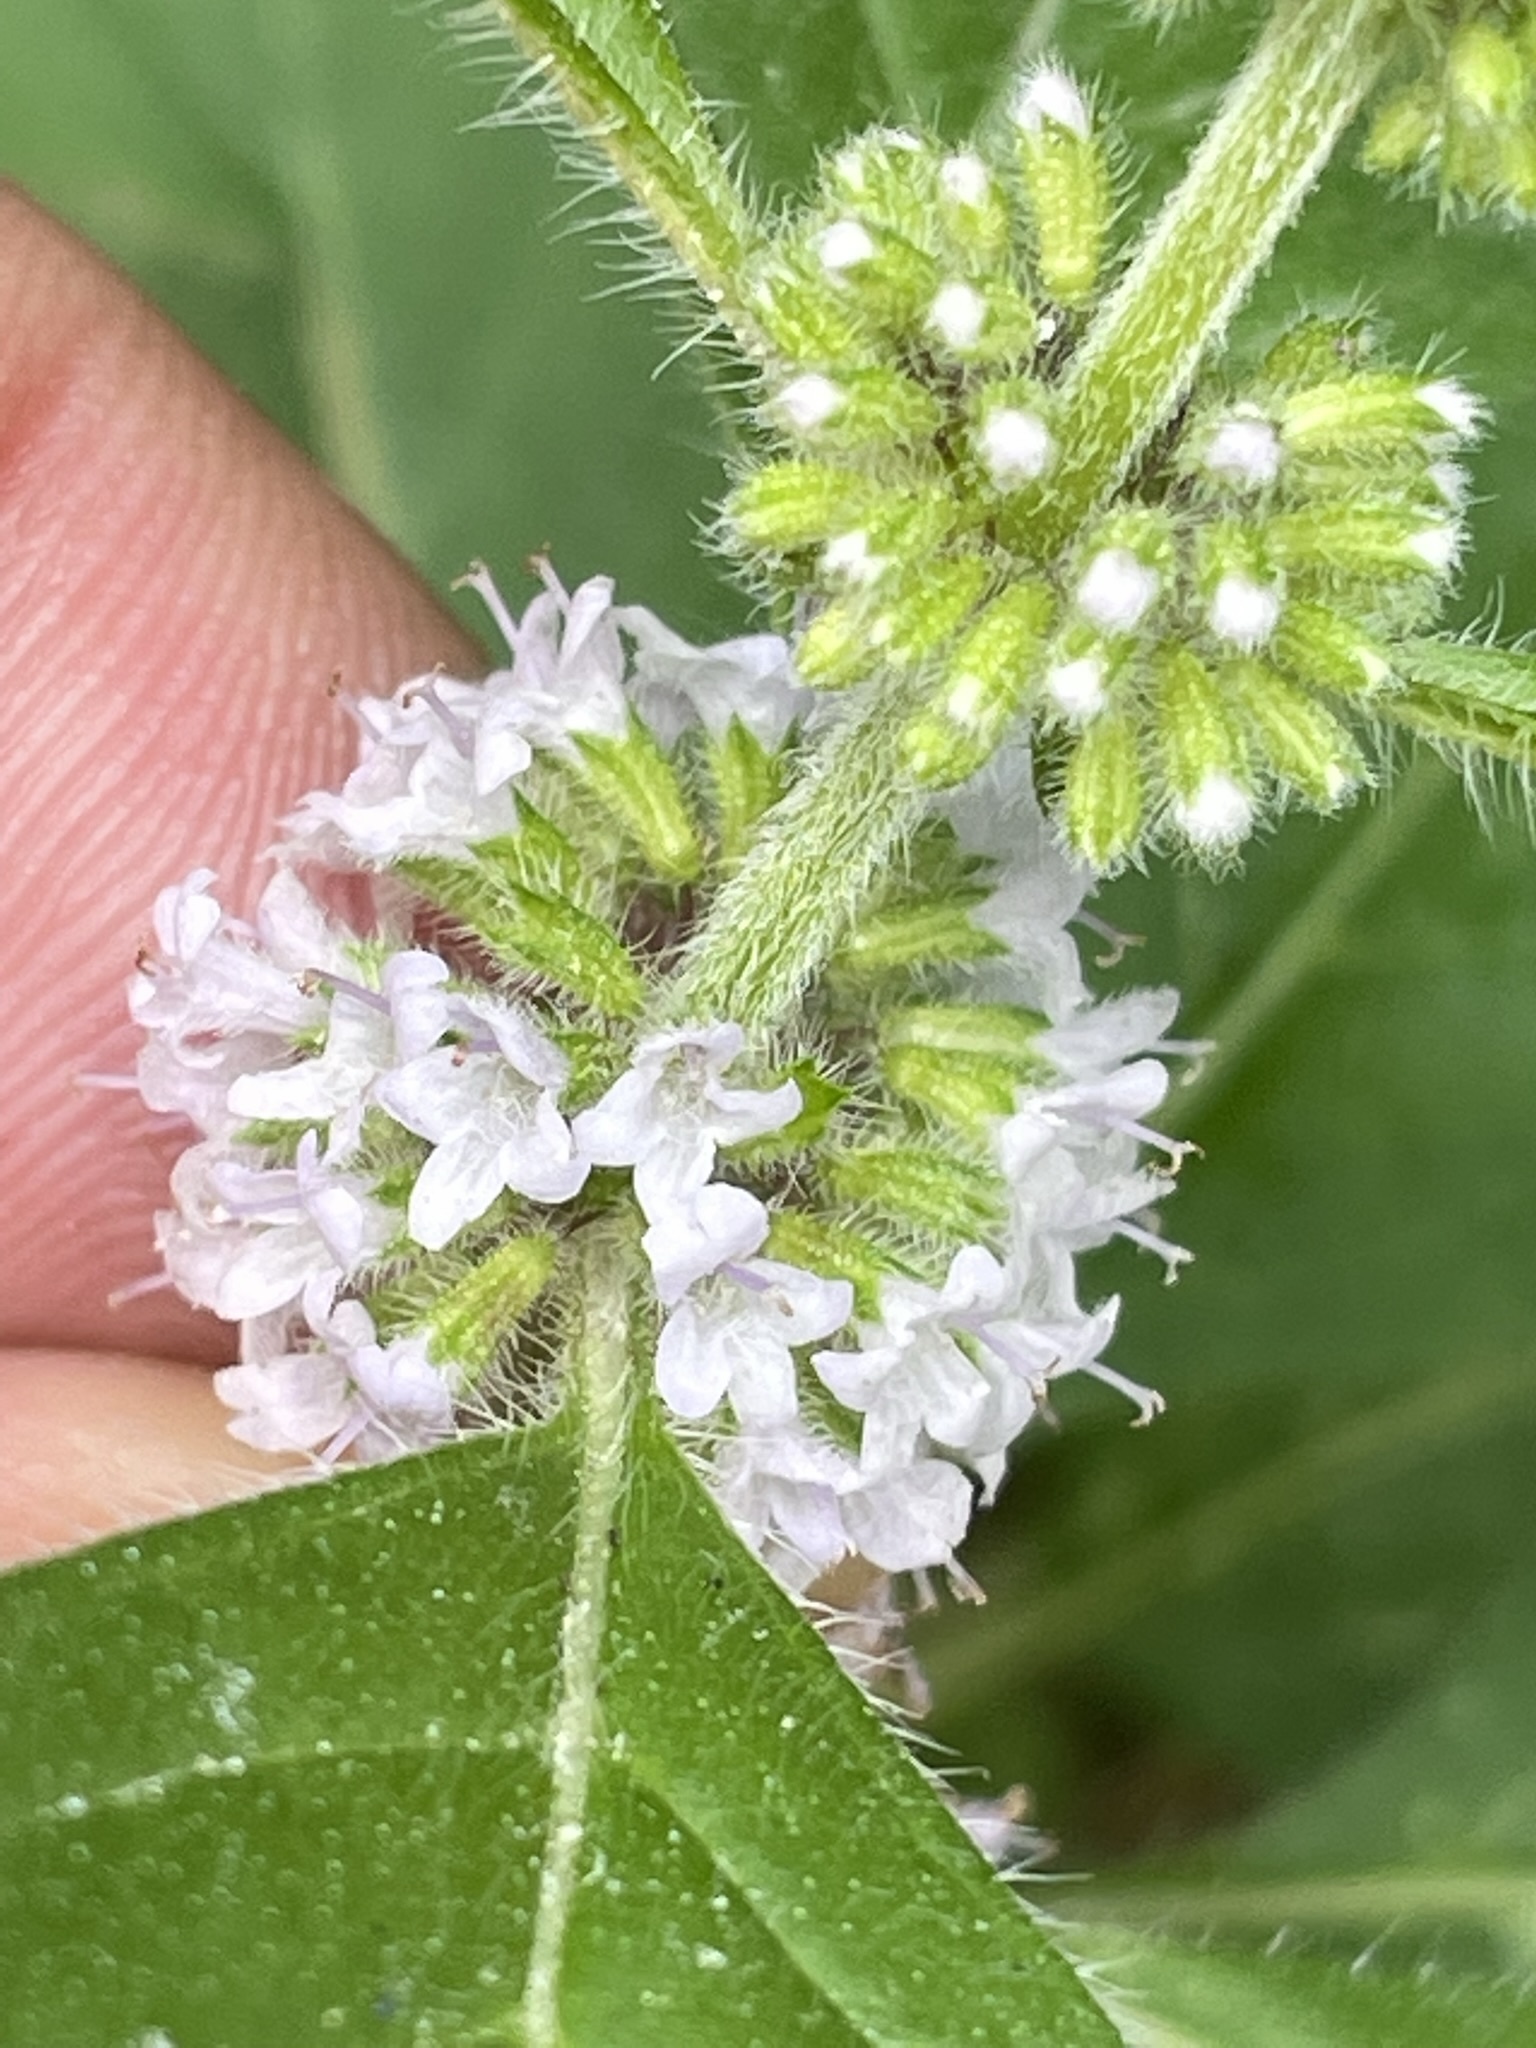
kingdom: Plantae
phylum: Tracheophyta
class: Magnoliopsida
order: Lamiales
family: Lamiaceae
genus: Mentha
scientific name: Mentha arvensis
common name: Corn mint
